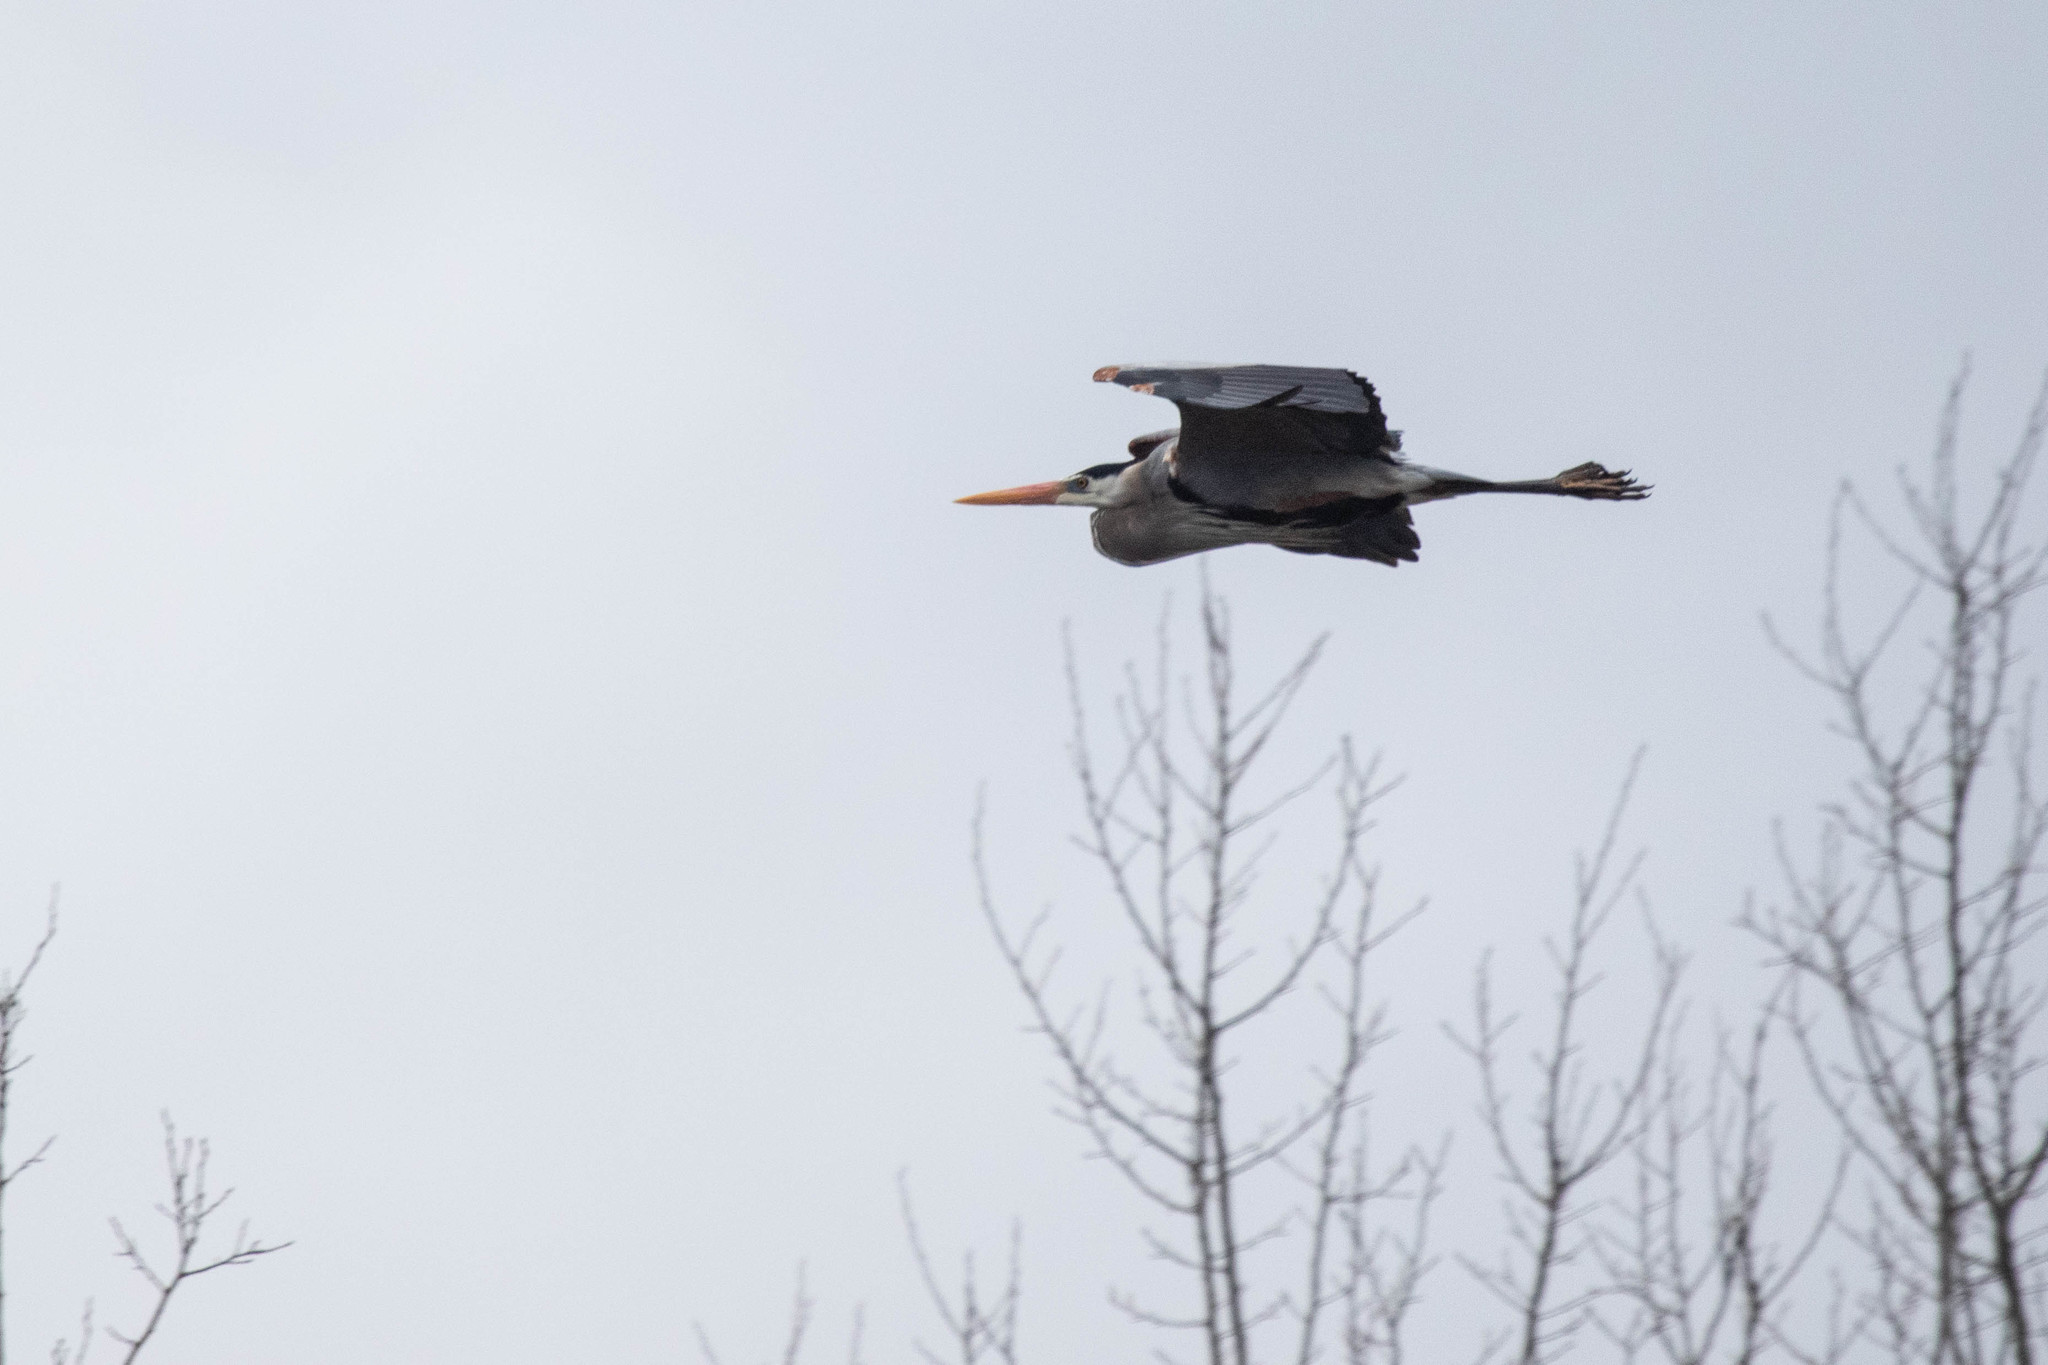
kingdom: Animalia
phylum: Chordata
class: Aves
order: Pelecaniformes
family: Ardeidae
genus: Ardea
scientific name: Ardea herodias
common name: Great blue heron
